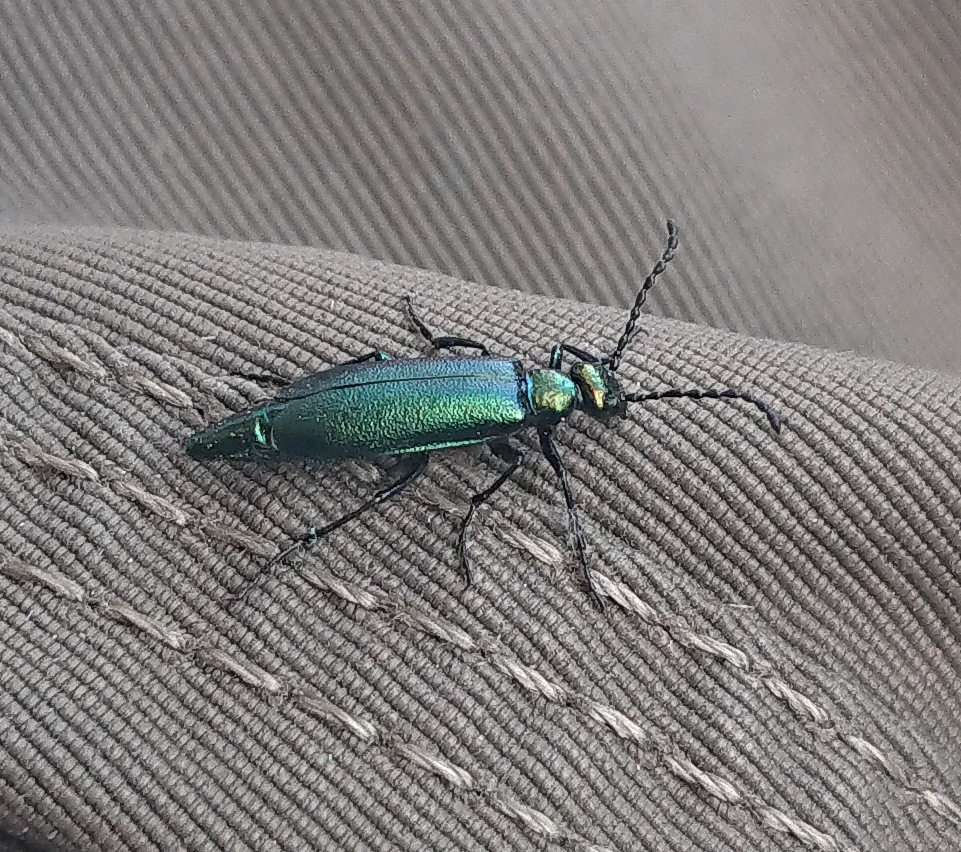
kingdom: Animalia
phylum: Arthropoda
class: Insecta
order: Coleoptera
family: Meloidae
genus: Lytta
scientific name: Lytta viridana
